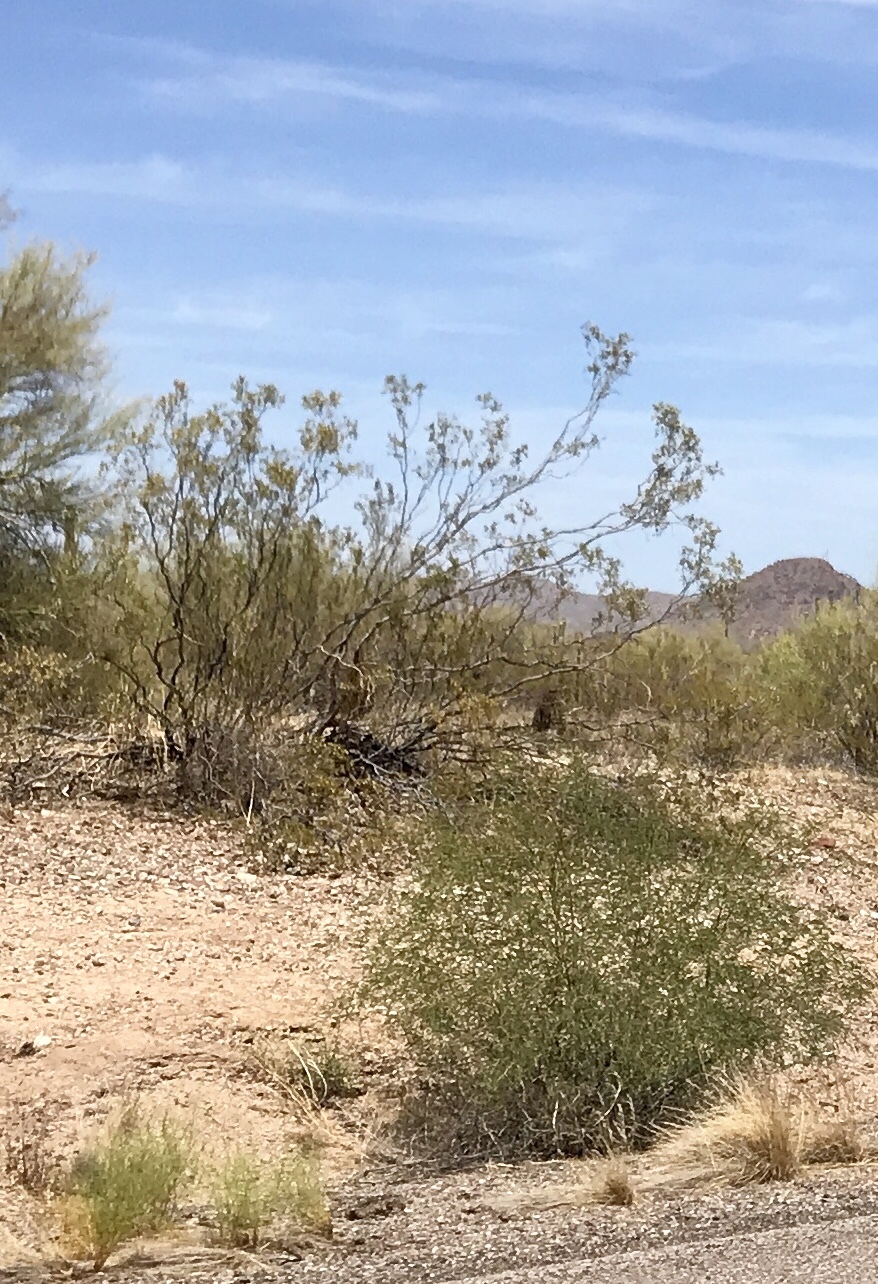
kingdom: Plantae
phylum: Tracheophyta
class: Magnoliopsida
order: Zygophyllales
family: Zygophyllaceae
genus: Larrea
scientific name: Larrea tridentata
